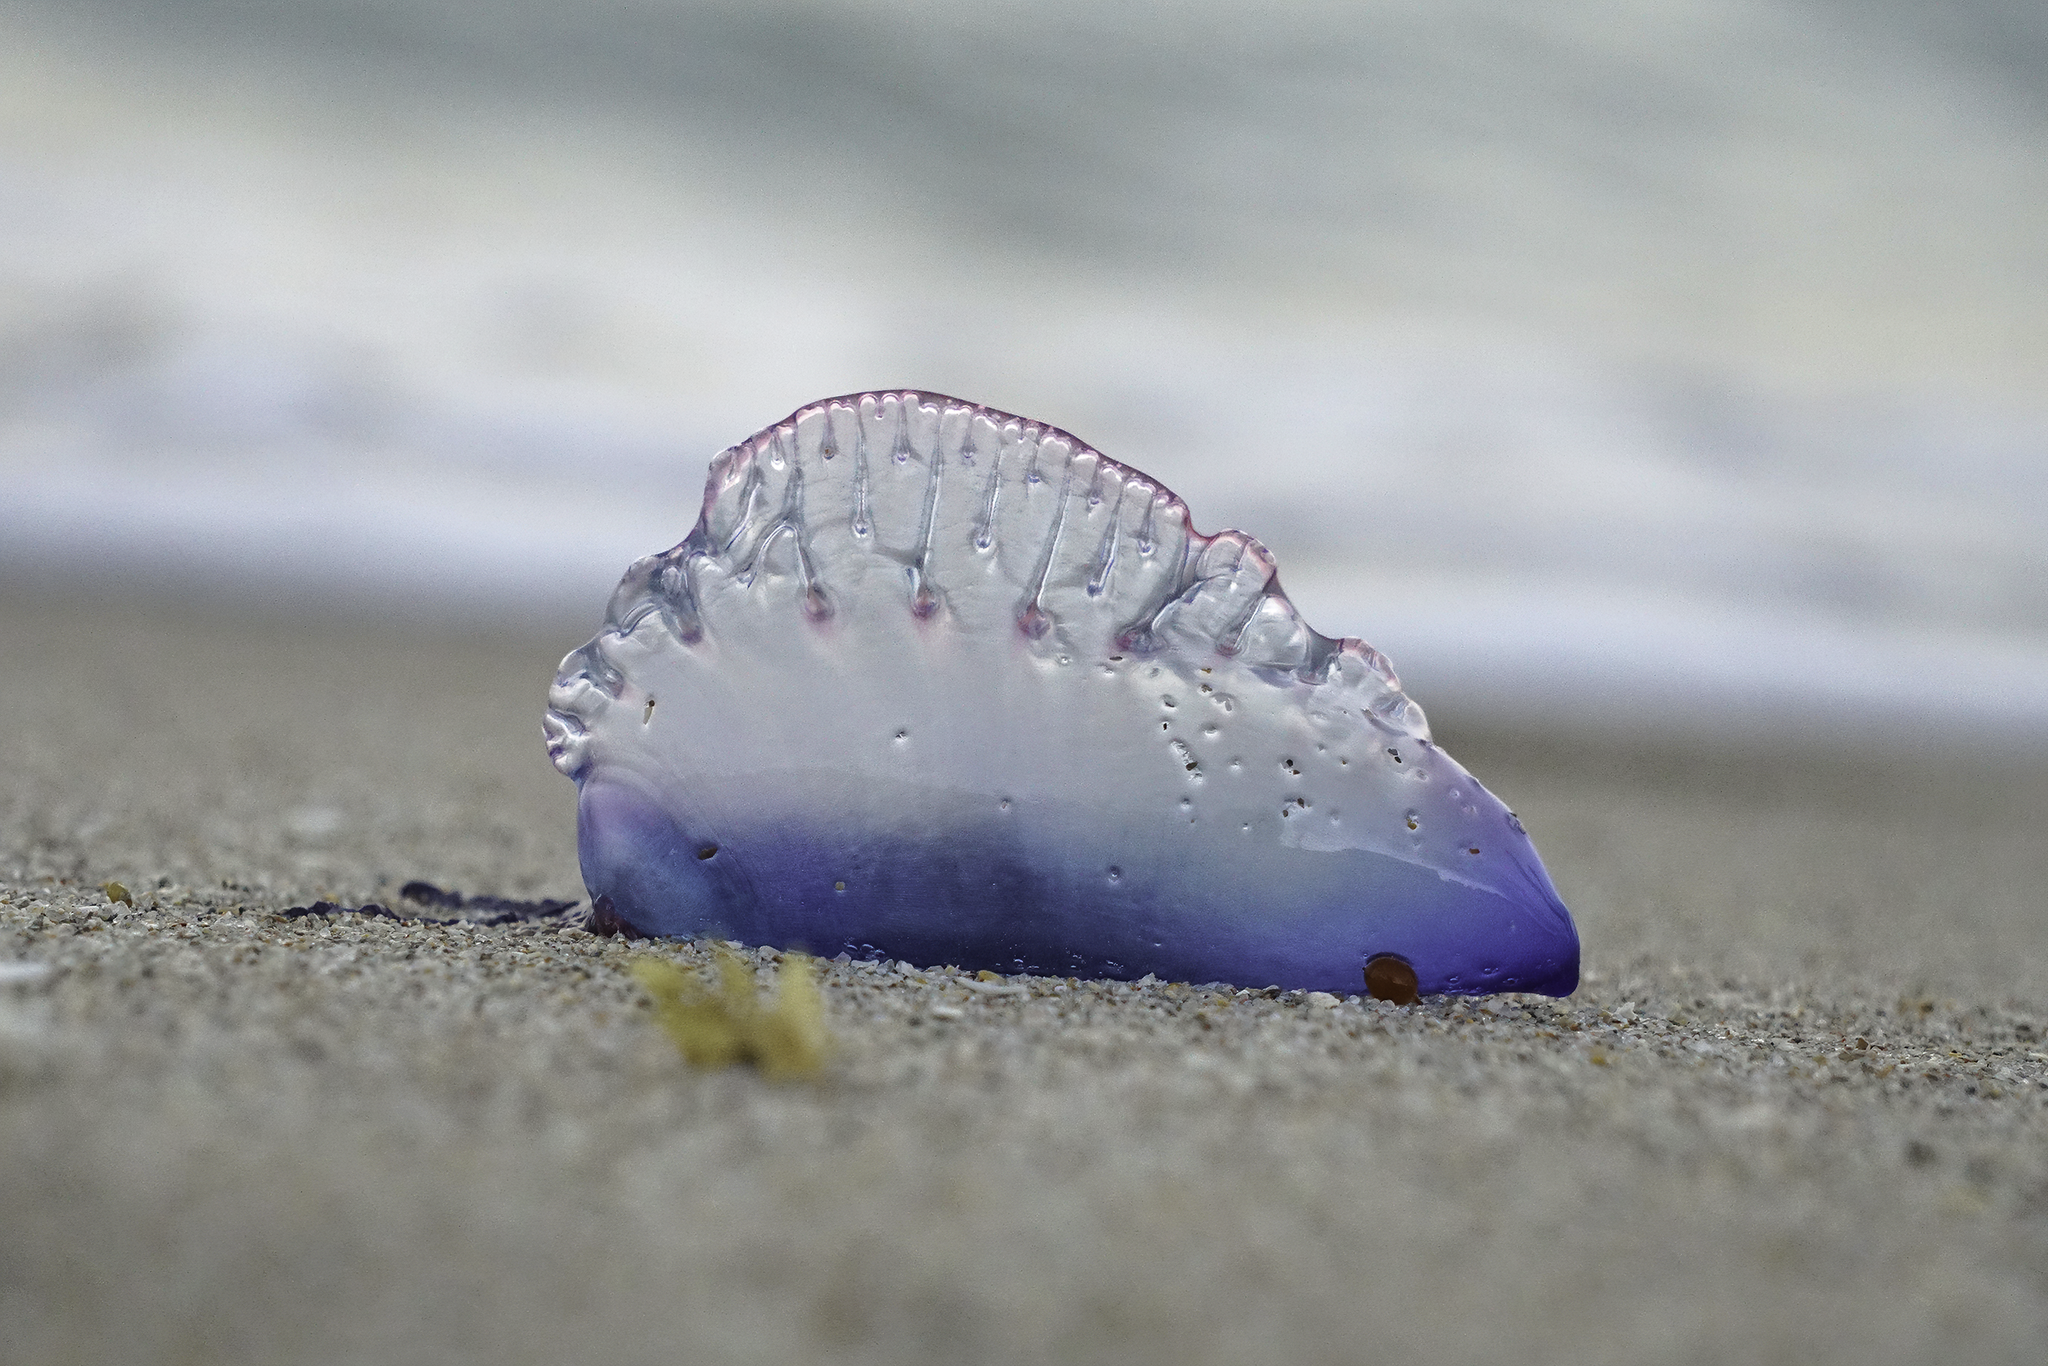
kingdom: Animalia
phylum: Cnidaria
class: Hydrozoa
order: Siphonophorae
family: Physaliidae
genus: Physalia
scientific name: Physalia physalis
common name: Portuguese man-of-war
